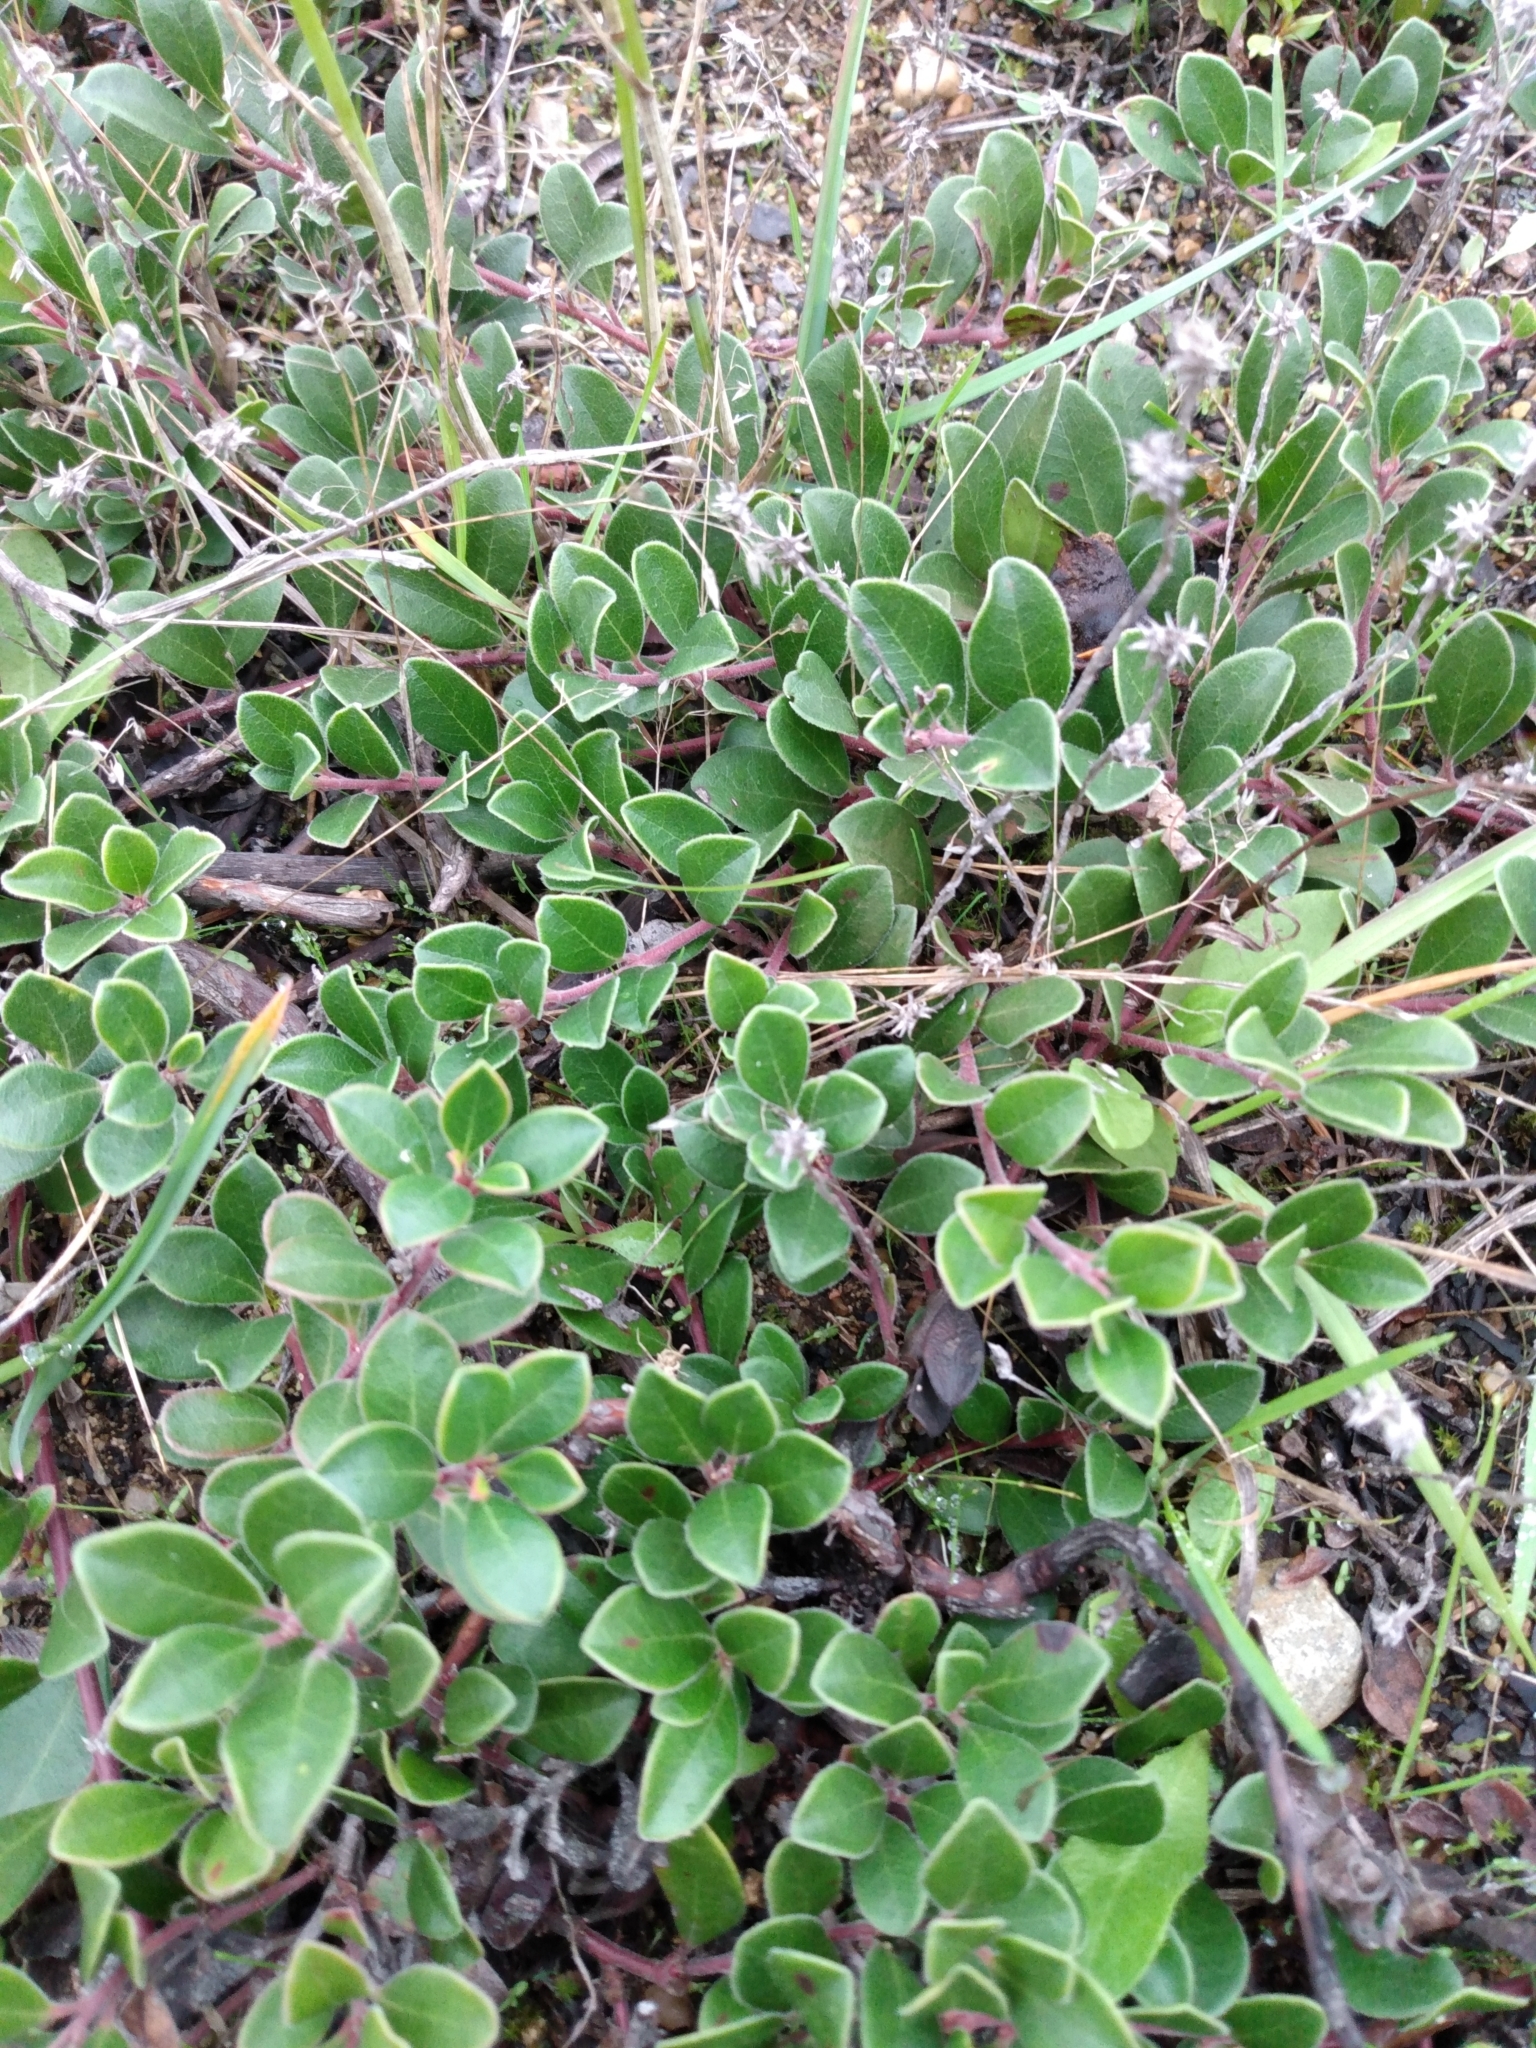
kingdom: Plantae
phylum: Tracheophyta
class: Magnoliopsida
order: Ericales
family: Ericaceae
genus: Arctostaphylos
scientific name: Arctostaphylos uva-ursi
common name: Bearberry
